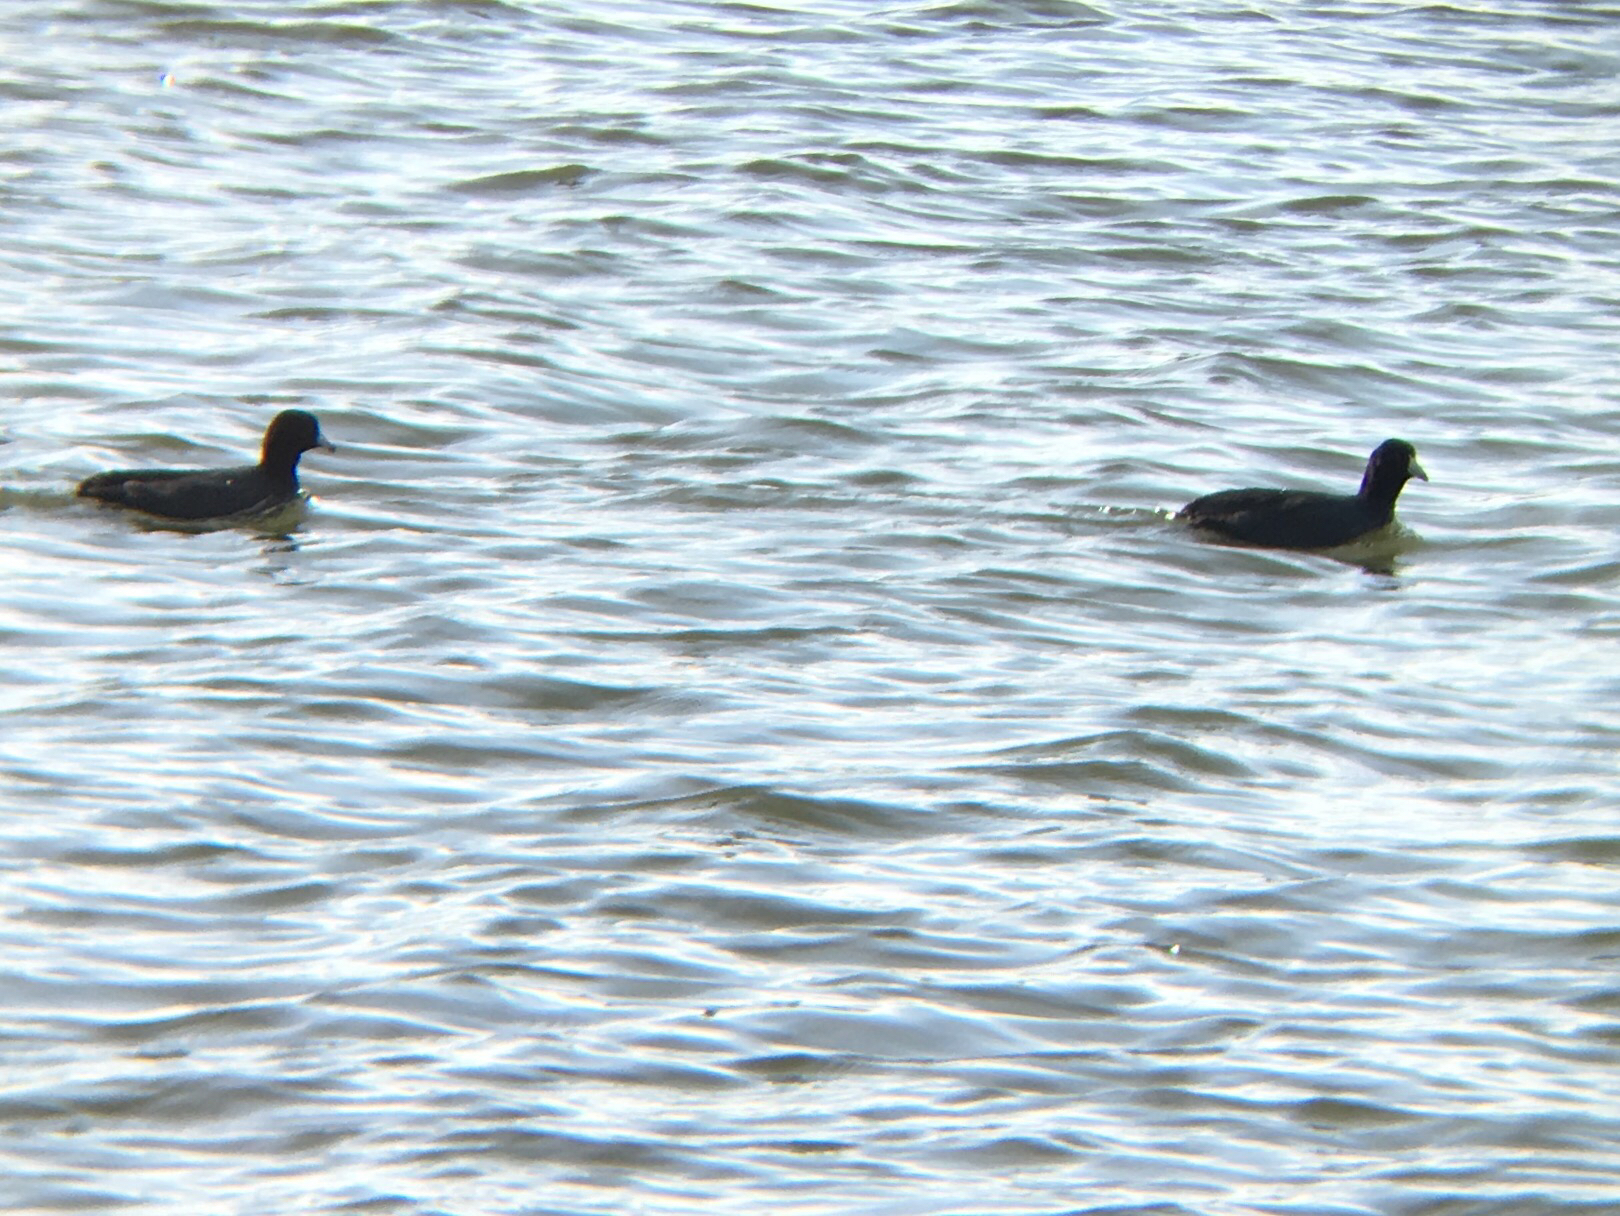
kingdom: Animalia
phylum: Chordata
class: Aves
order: Gruiformes
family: Rallidae
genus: Fulica
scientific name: Fulica americana
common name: American coot
